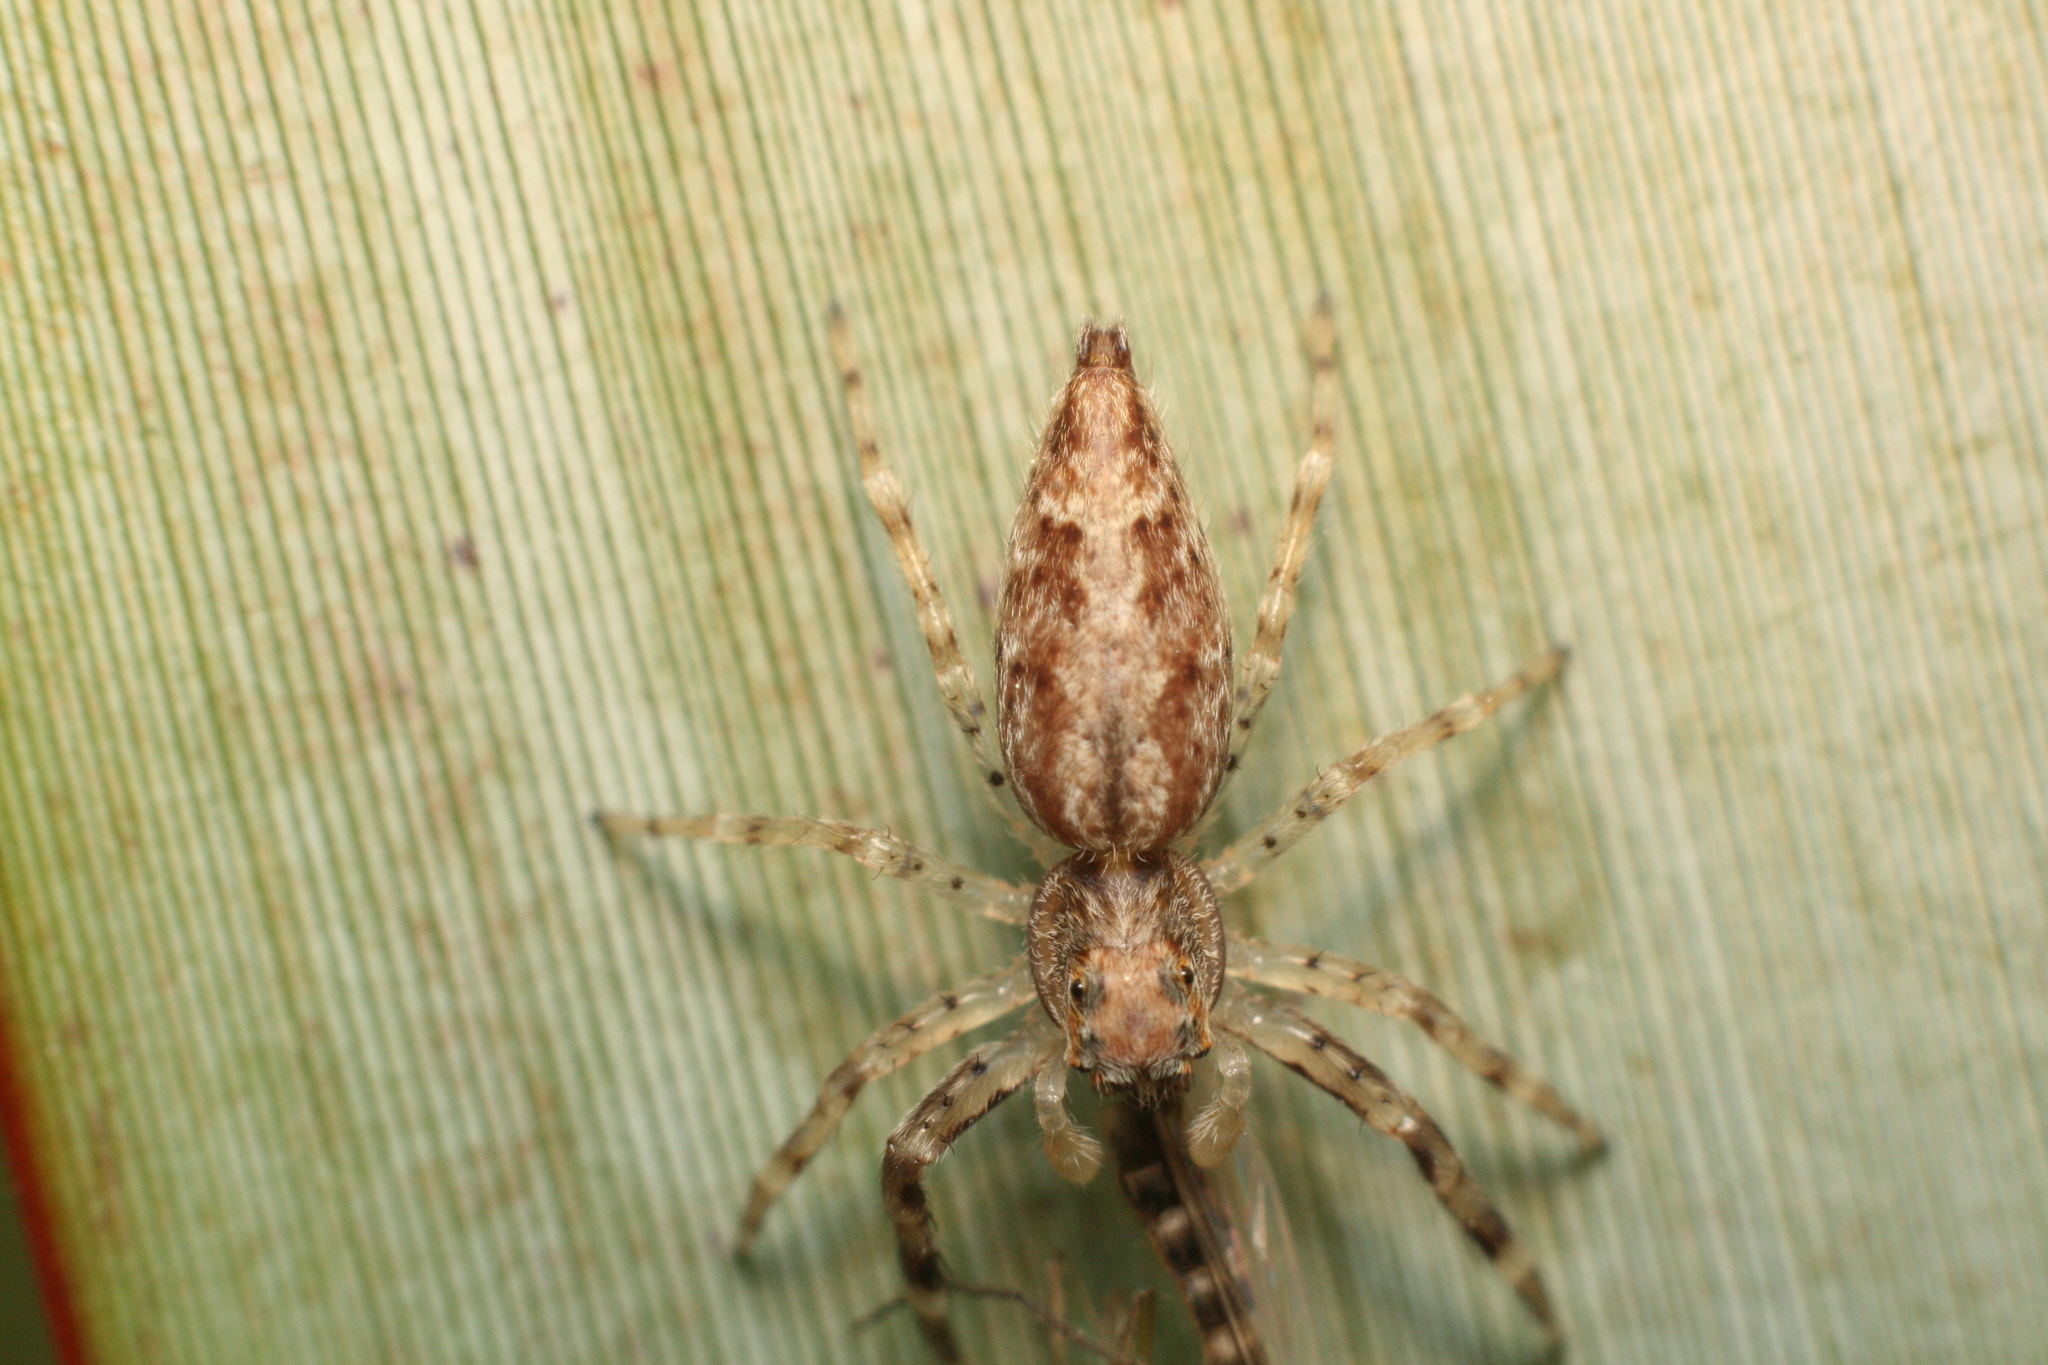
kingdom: Animalia
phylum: Arthropoda
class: Arachnida
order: Araneae
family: Salticidae
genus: Helpis
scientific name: Helpis minitabunda
